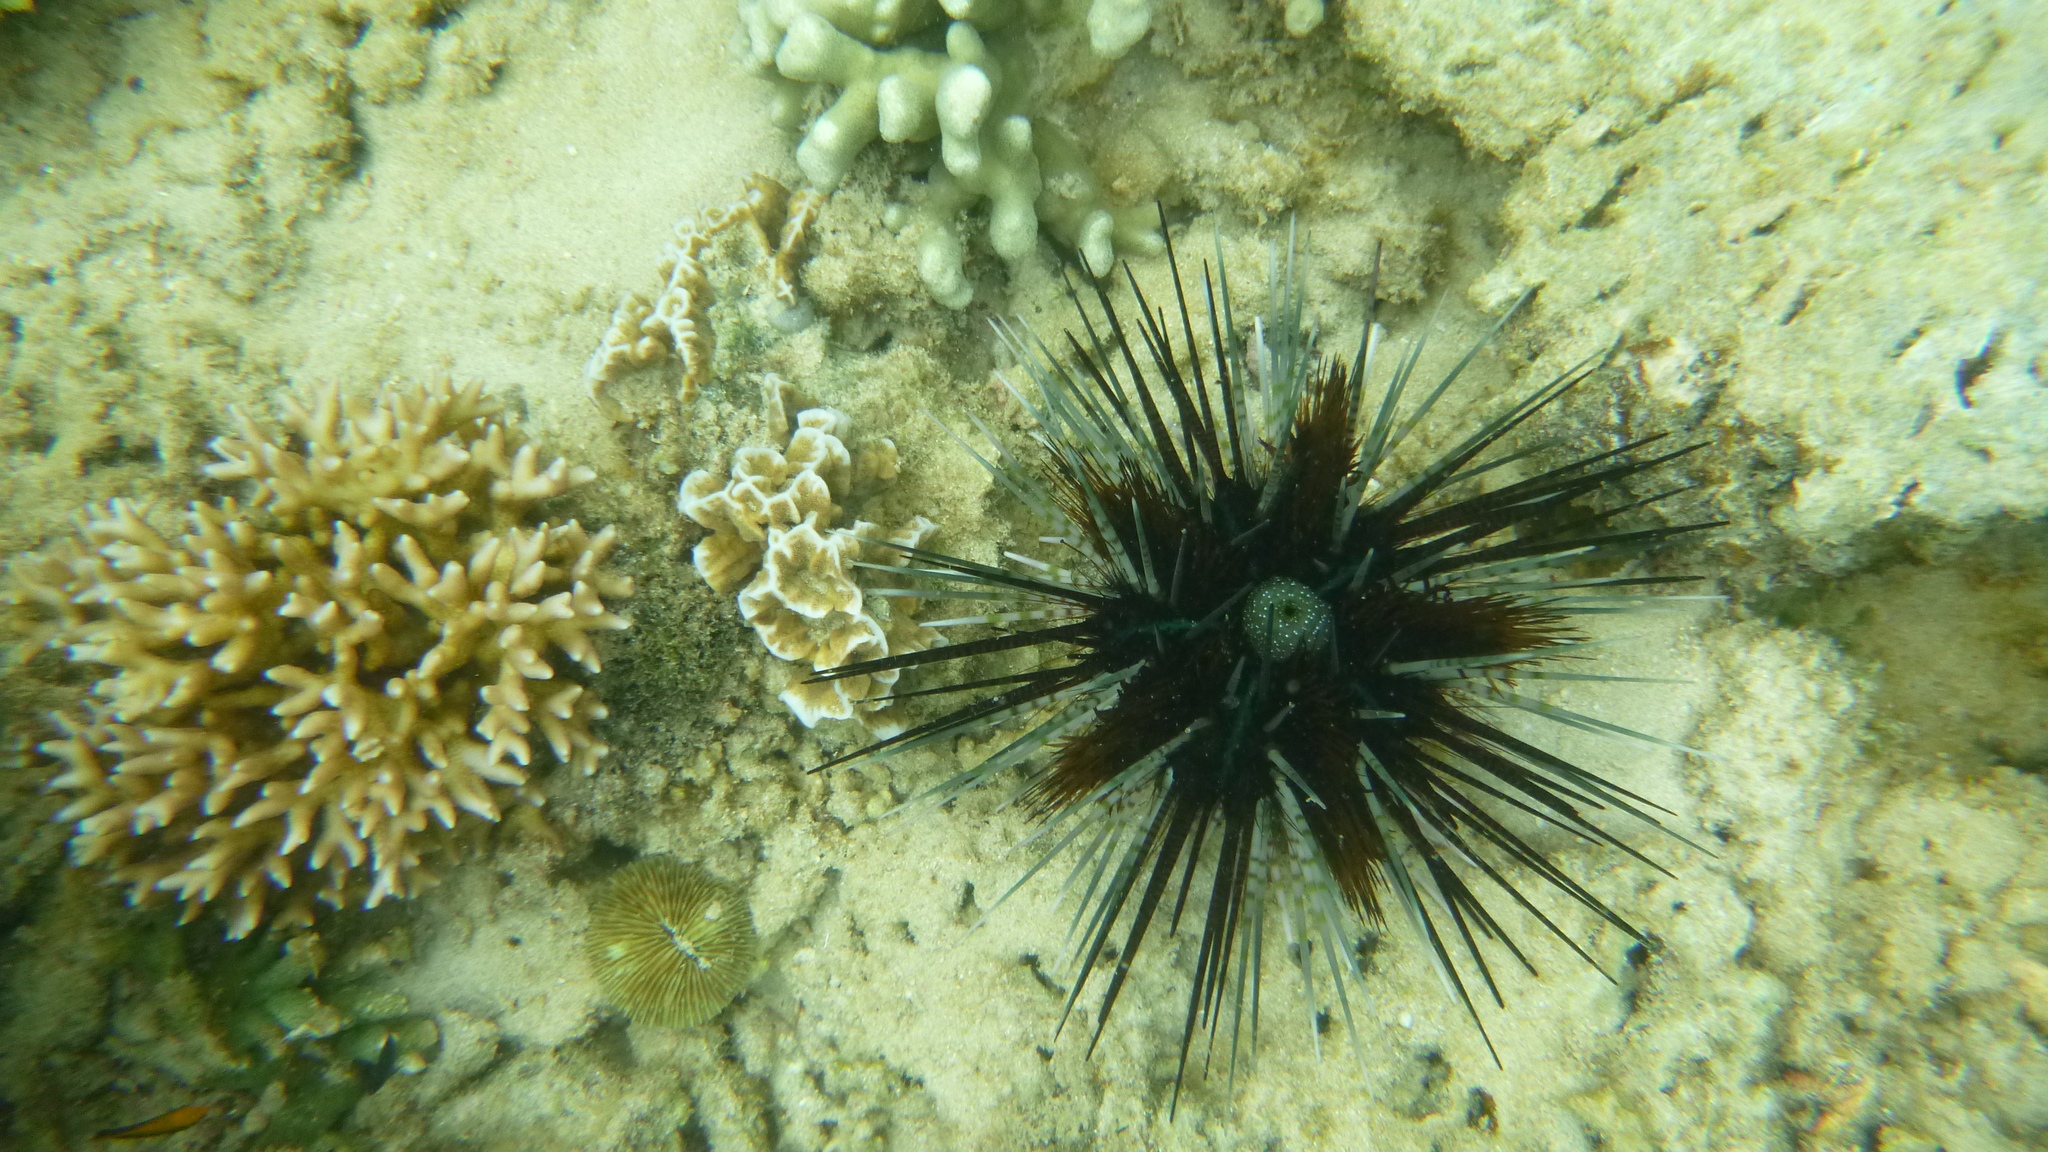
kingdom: Animalia
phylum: Echinodermata
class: Echinoidea
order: Diadematoida
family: Diadematidae
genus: Echinothrix
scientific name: Echinothrix calamaris
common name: Banded sea urchin
